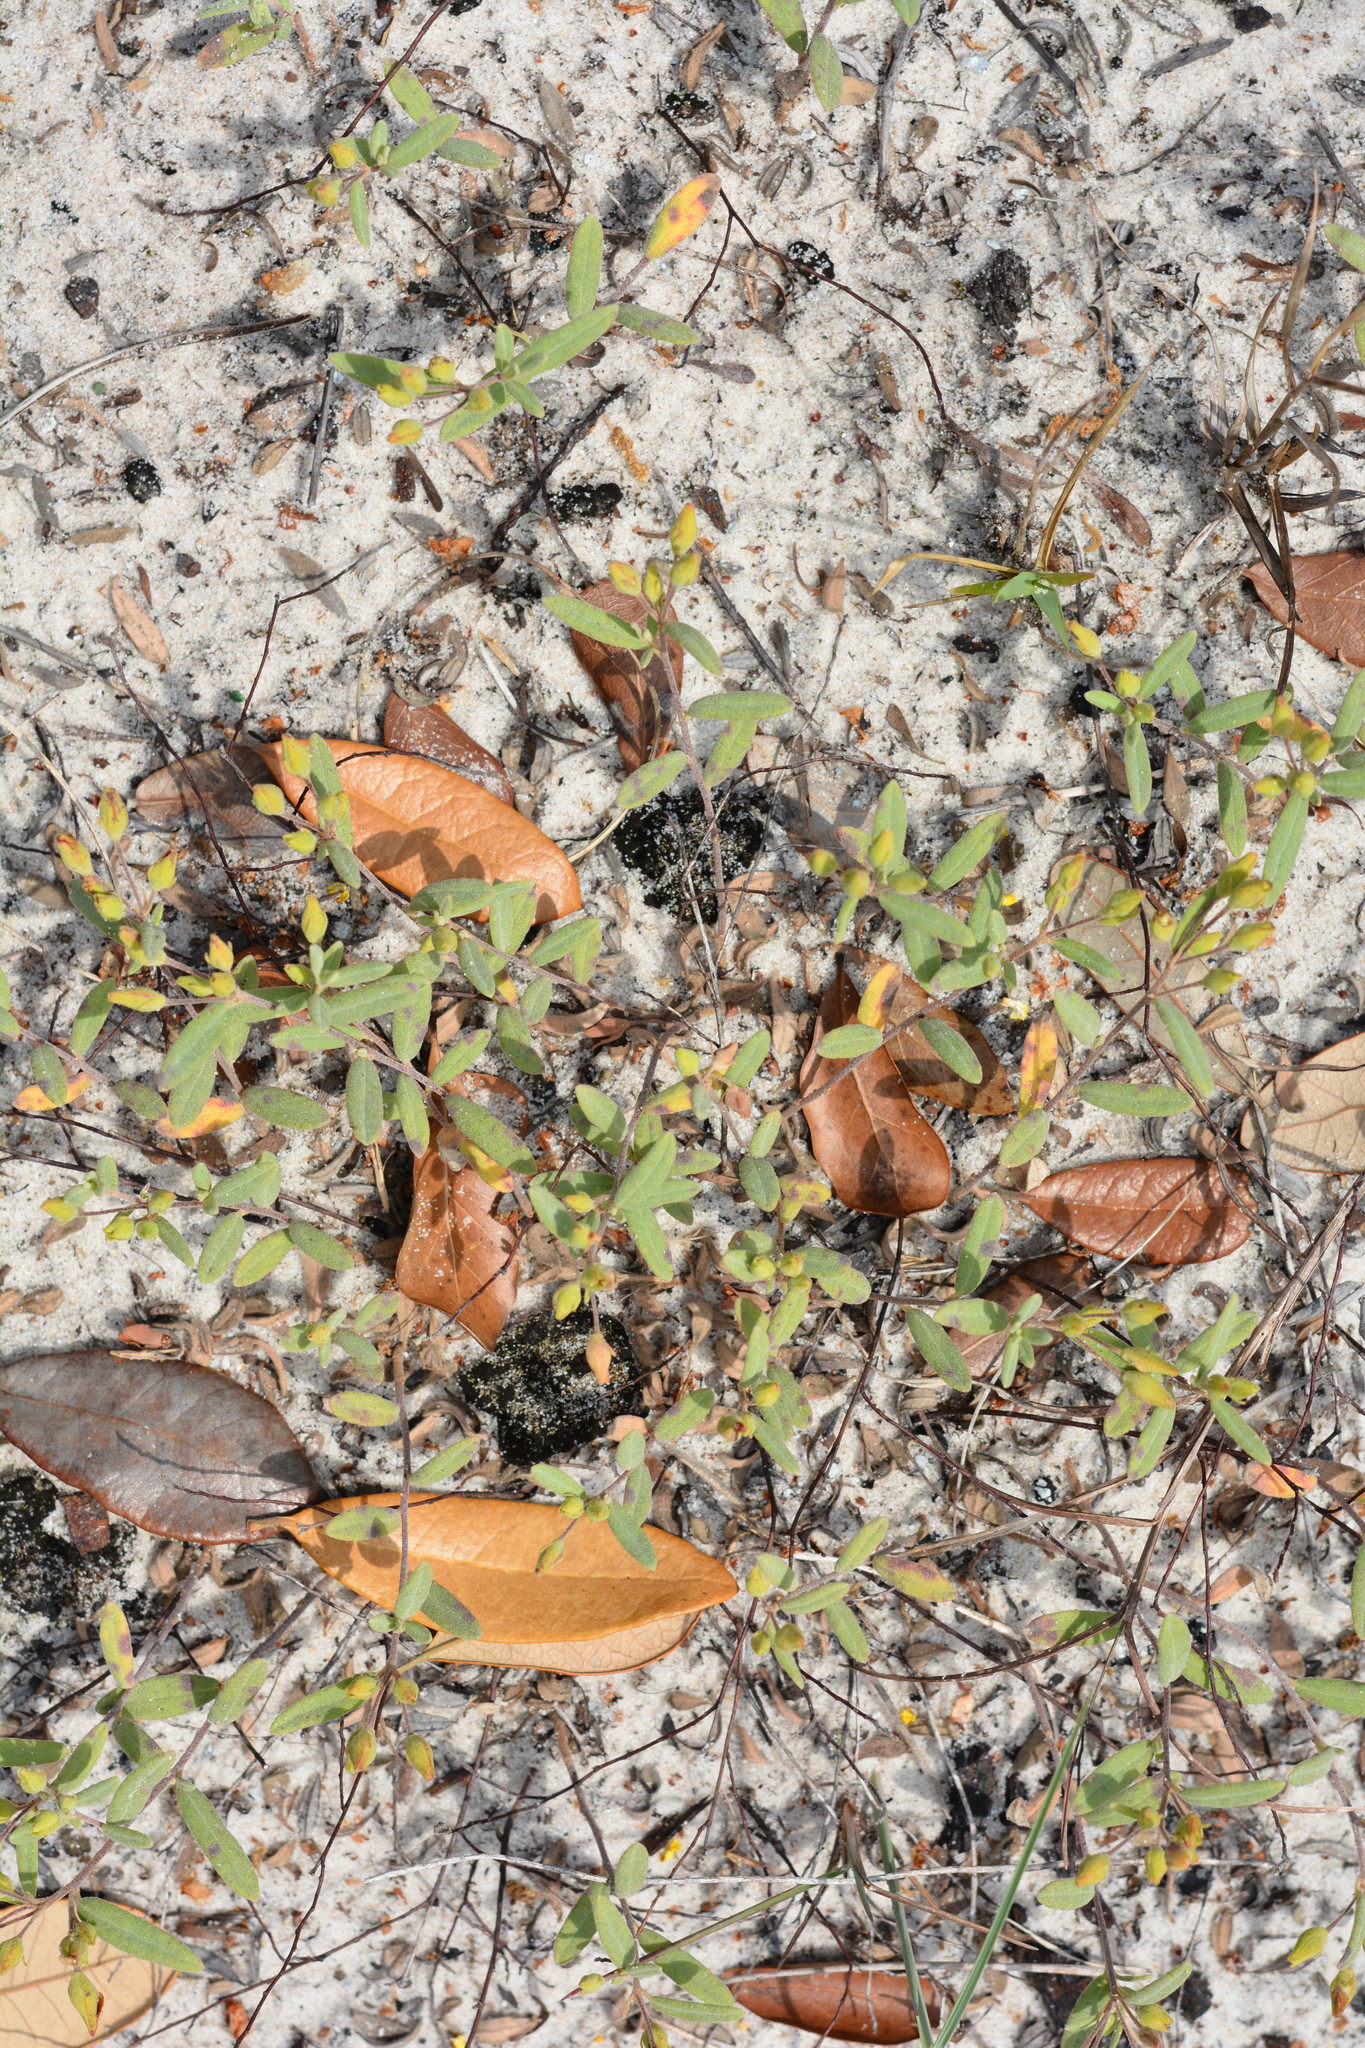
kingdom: Plantae
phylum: Tracheophyta
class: Magnoliopsida
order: Malvales
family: Cistaceae
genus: Crocanthemum
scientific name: Crocanthemum arenicola
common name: Gulf coast frostweed
